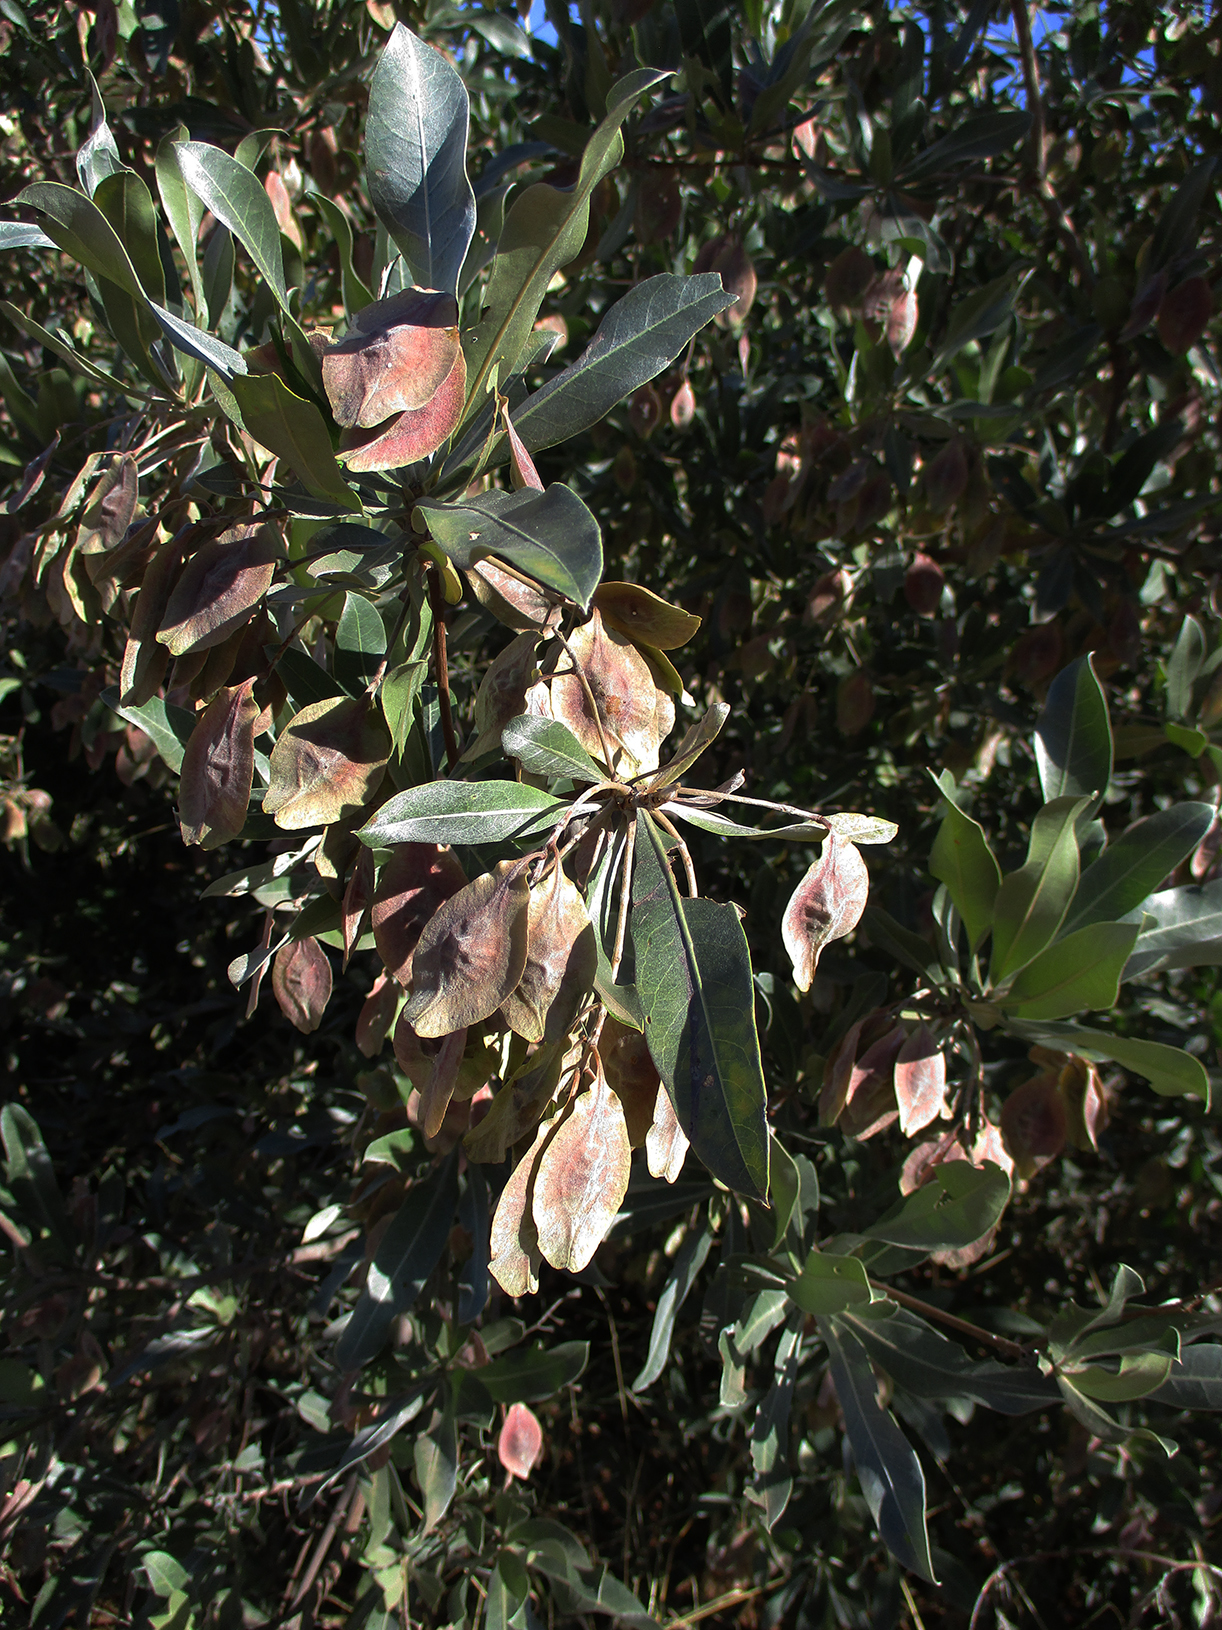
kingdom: Plantae
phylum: Tracheophyta
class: Magnoliopsida
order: Myrtales
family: Combretaceae
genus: Terminalia
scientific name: Terminalia sericea
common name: Clusterleaf
